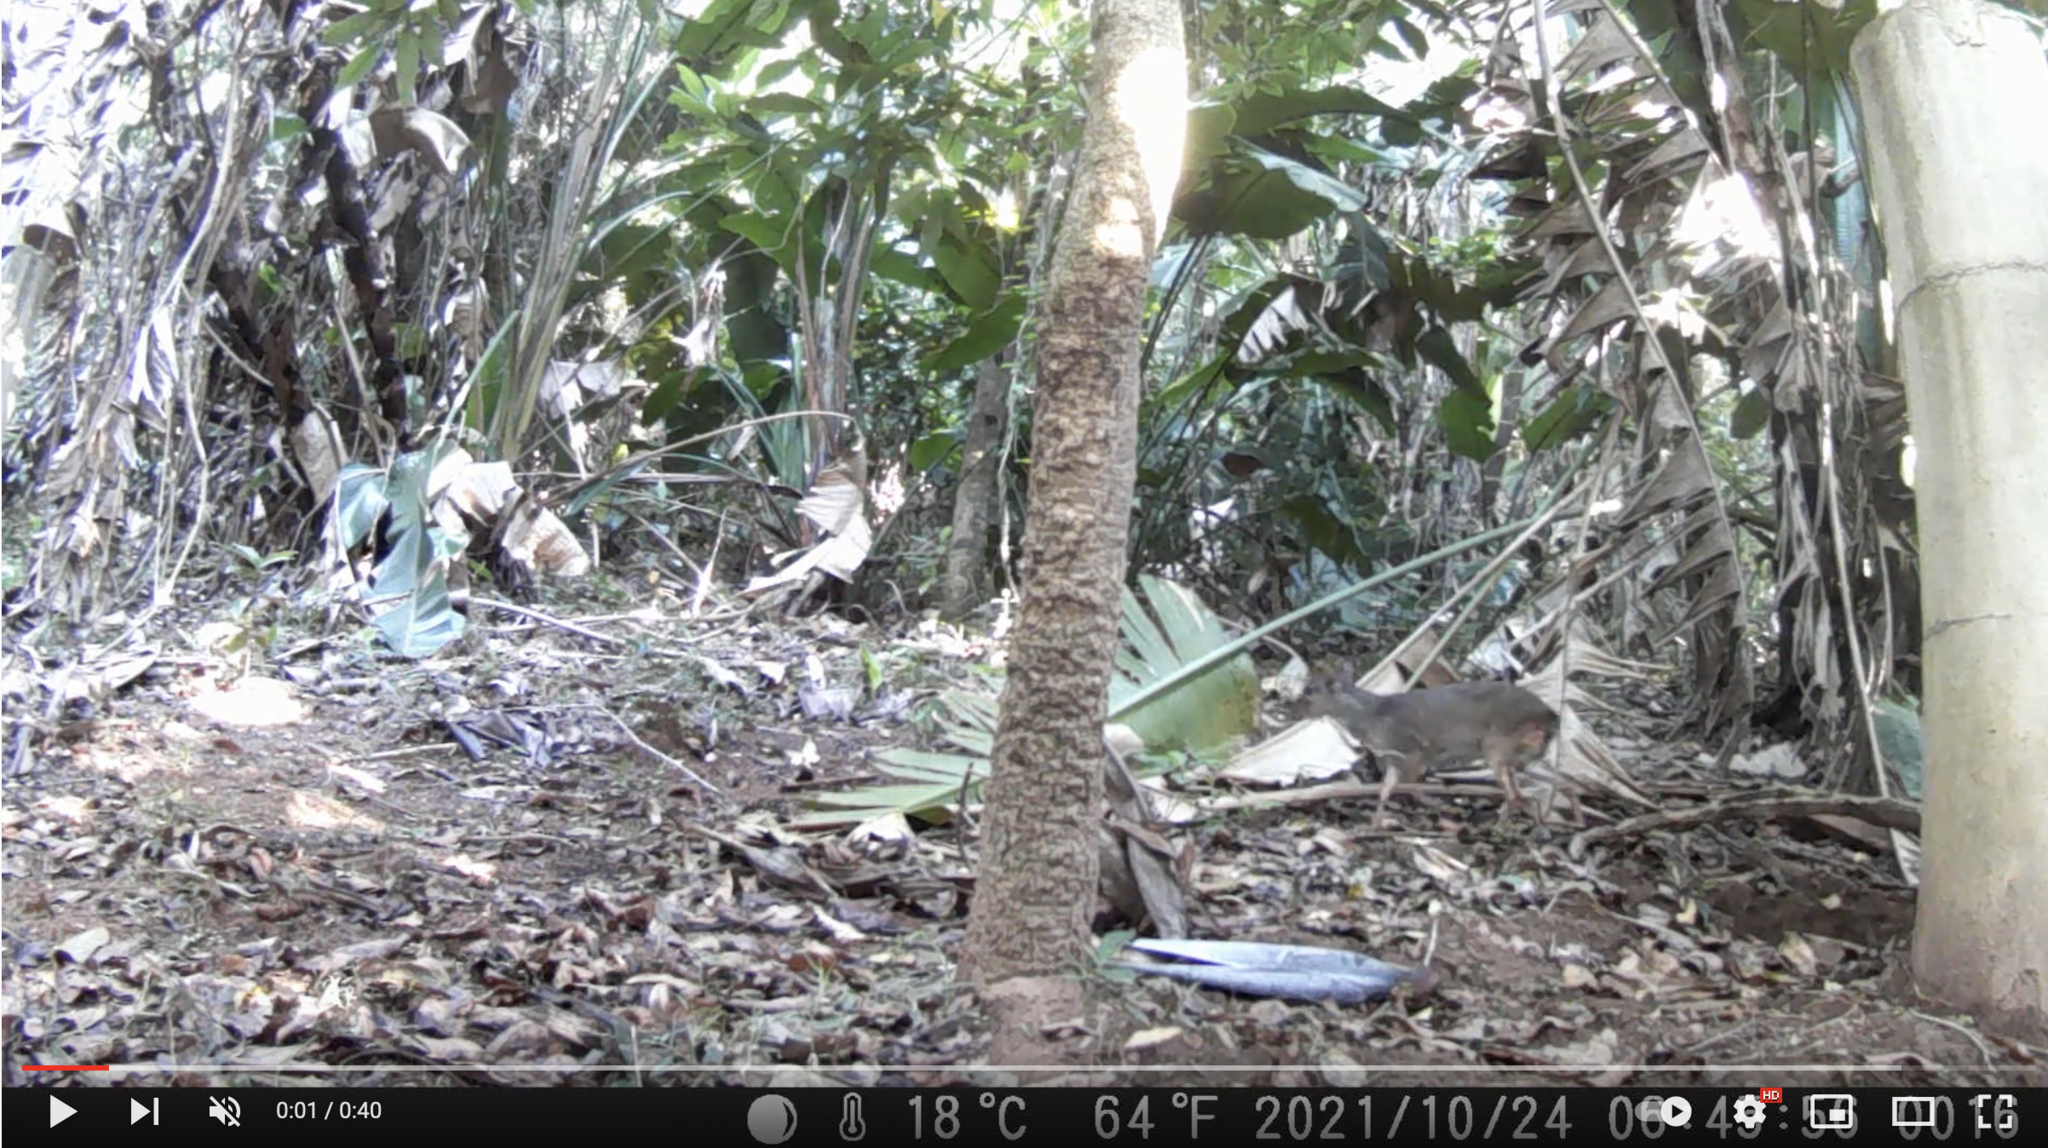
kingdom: Animalia
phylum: Chordata
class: Mammalia
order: Artiodactyla
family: Bovidae
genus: Philantomba
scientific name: Philantomba monticola
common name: Blue duiker
